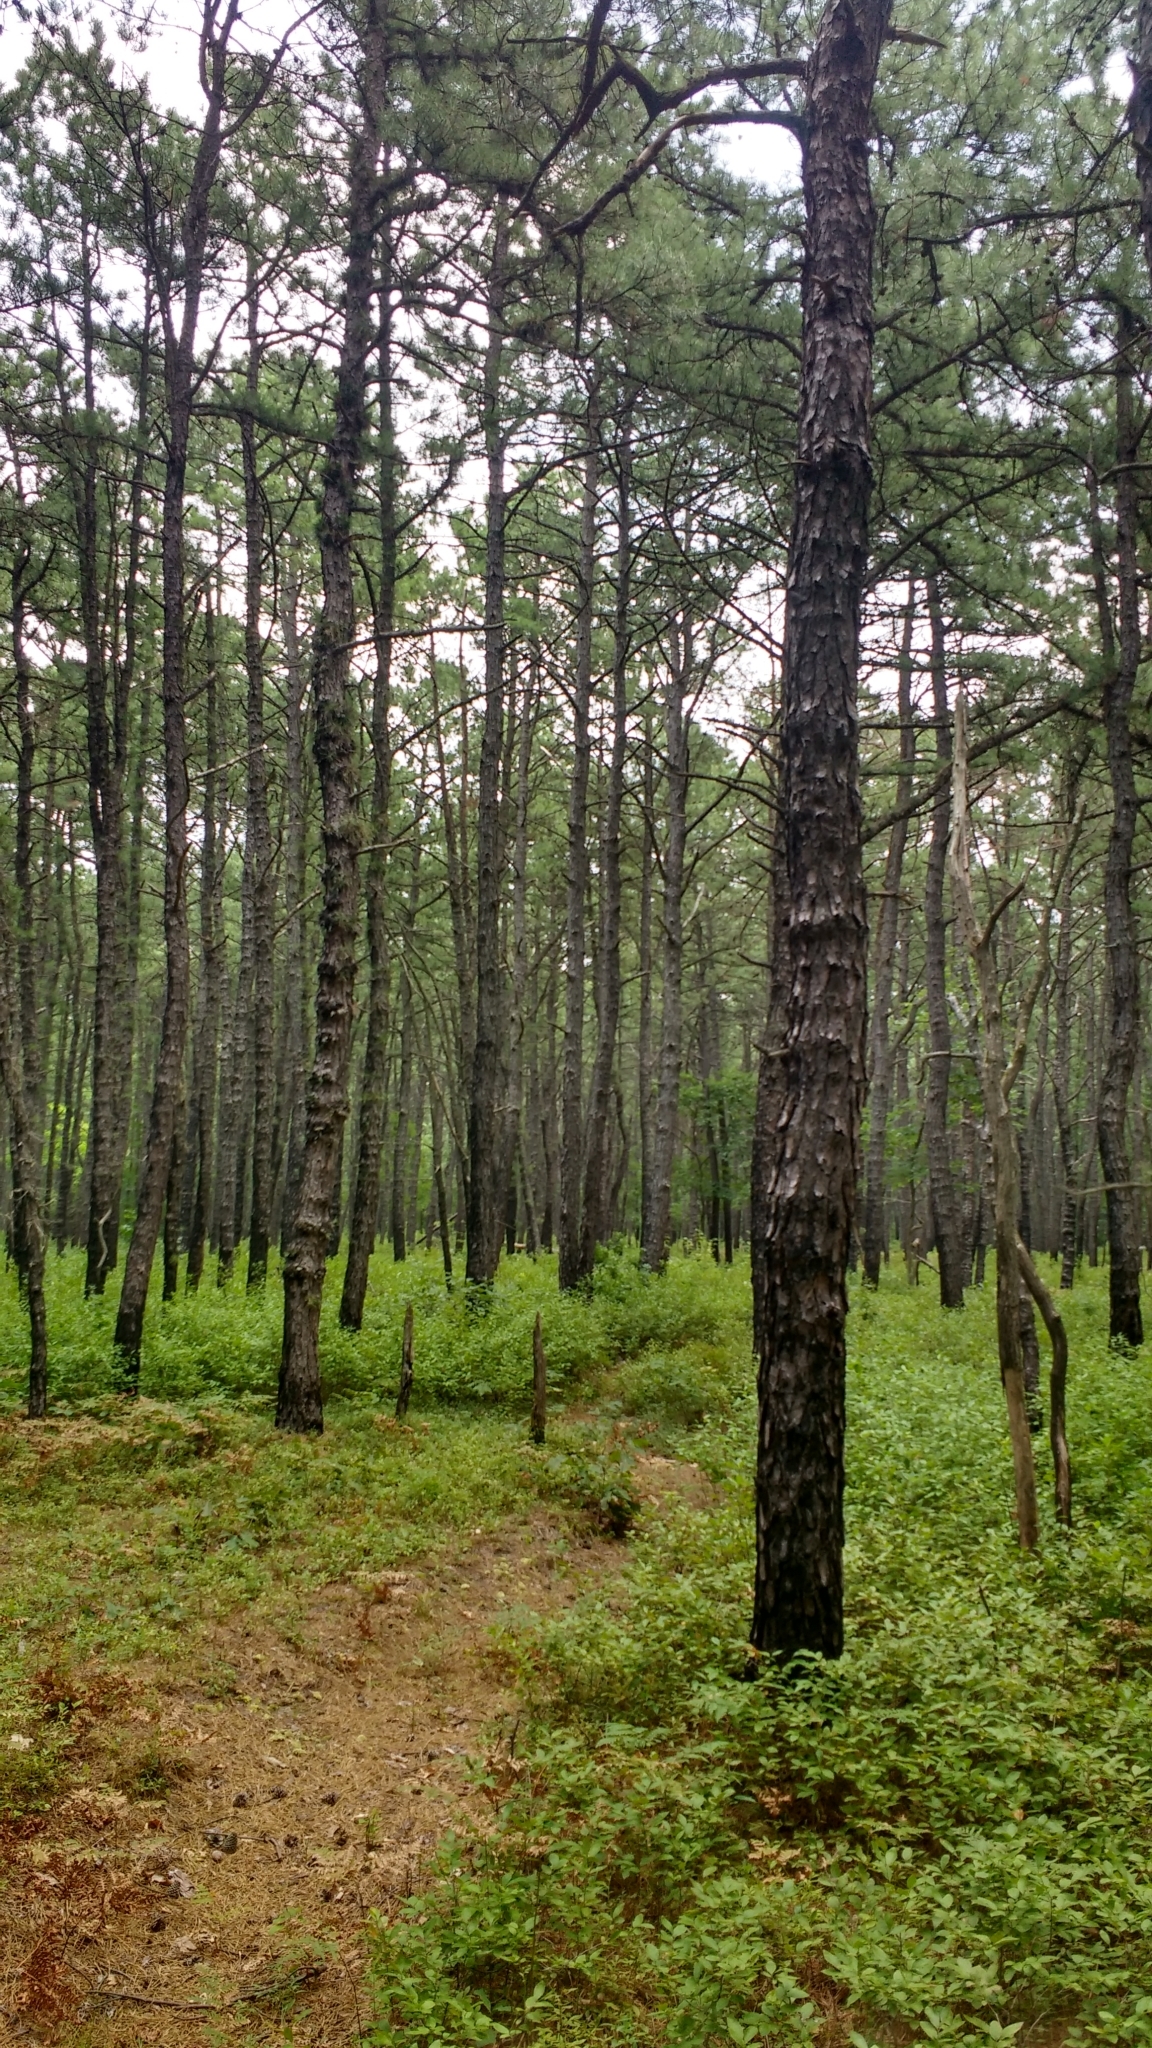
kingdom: Plantae
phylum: Tracheophyta
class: Pinopsida
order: Pinales
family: Pinaceae
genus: Pinus
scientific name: Pinus rigida
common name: Pitch pine
